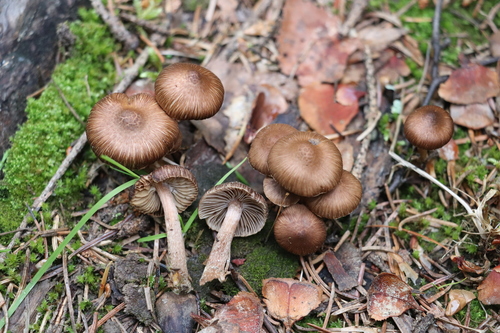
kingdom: Fungi
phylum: Basidiomycota
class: Agaricomycetes
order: Agaricales
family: Inocybaceae
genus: Inocybe
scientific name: Inocybe undulatospora
